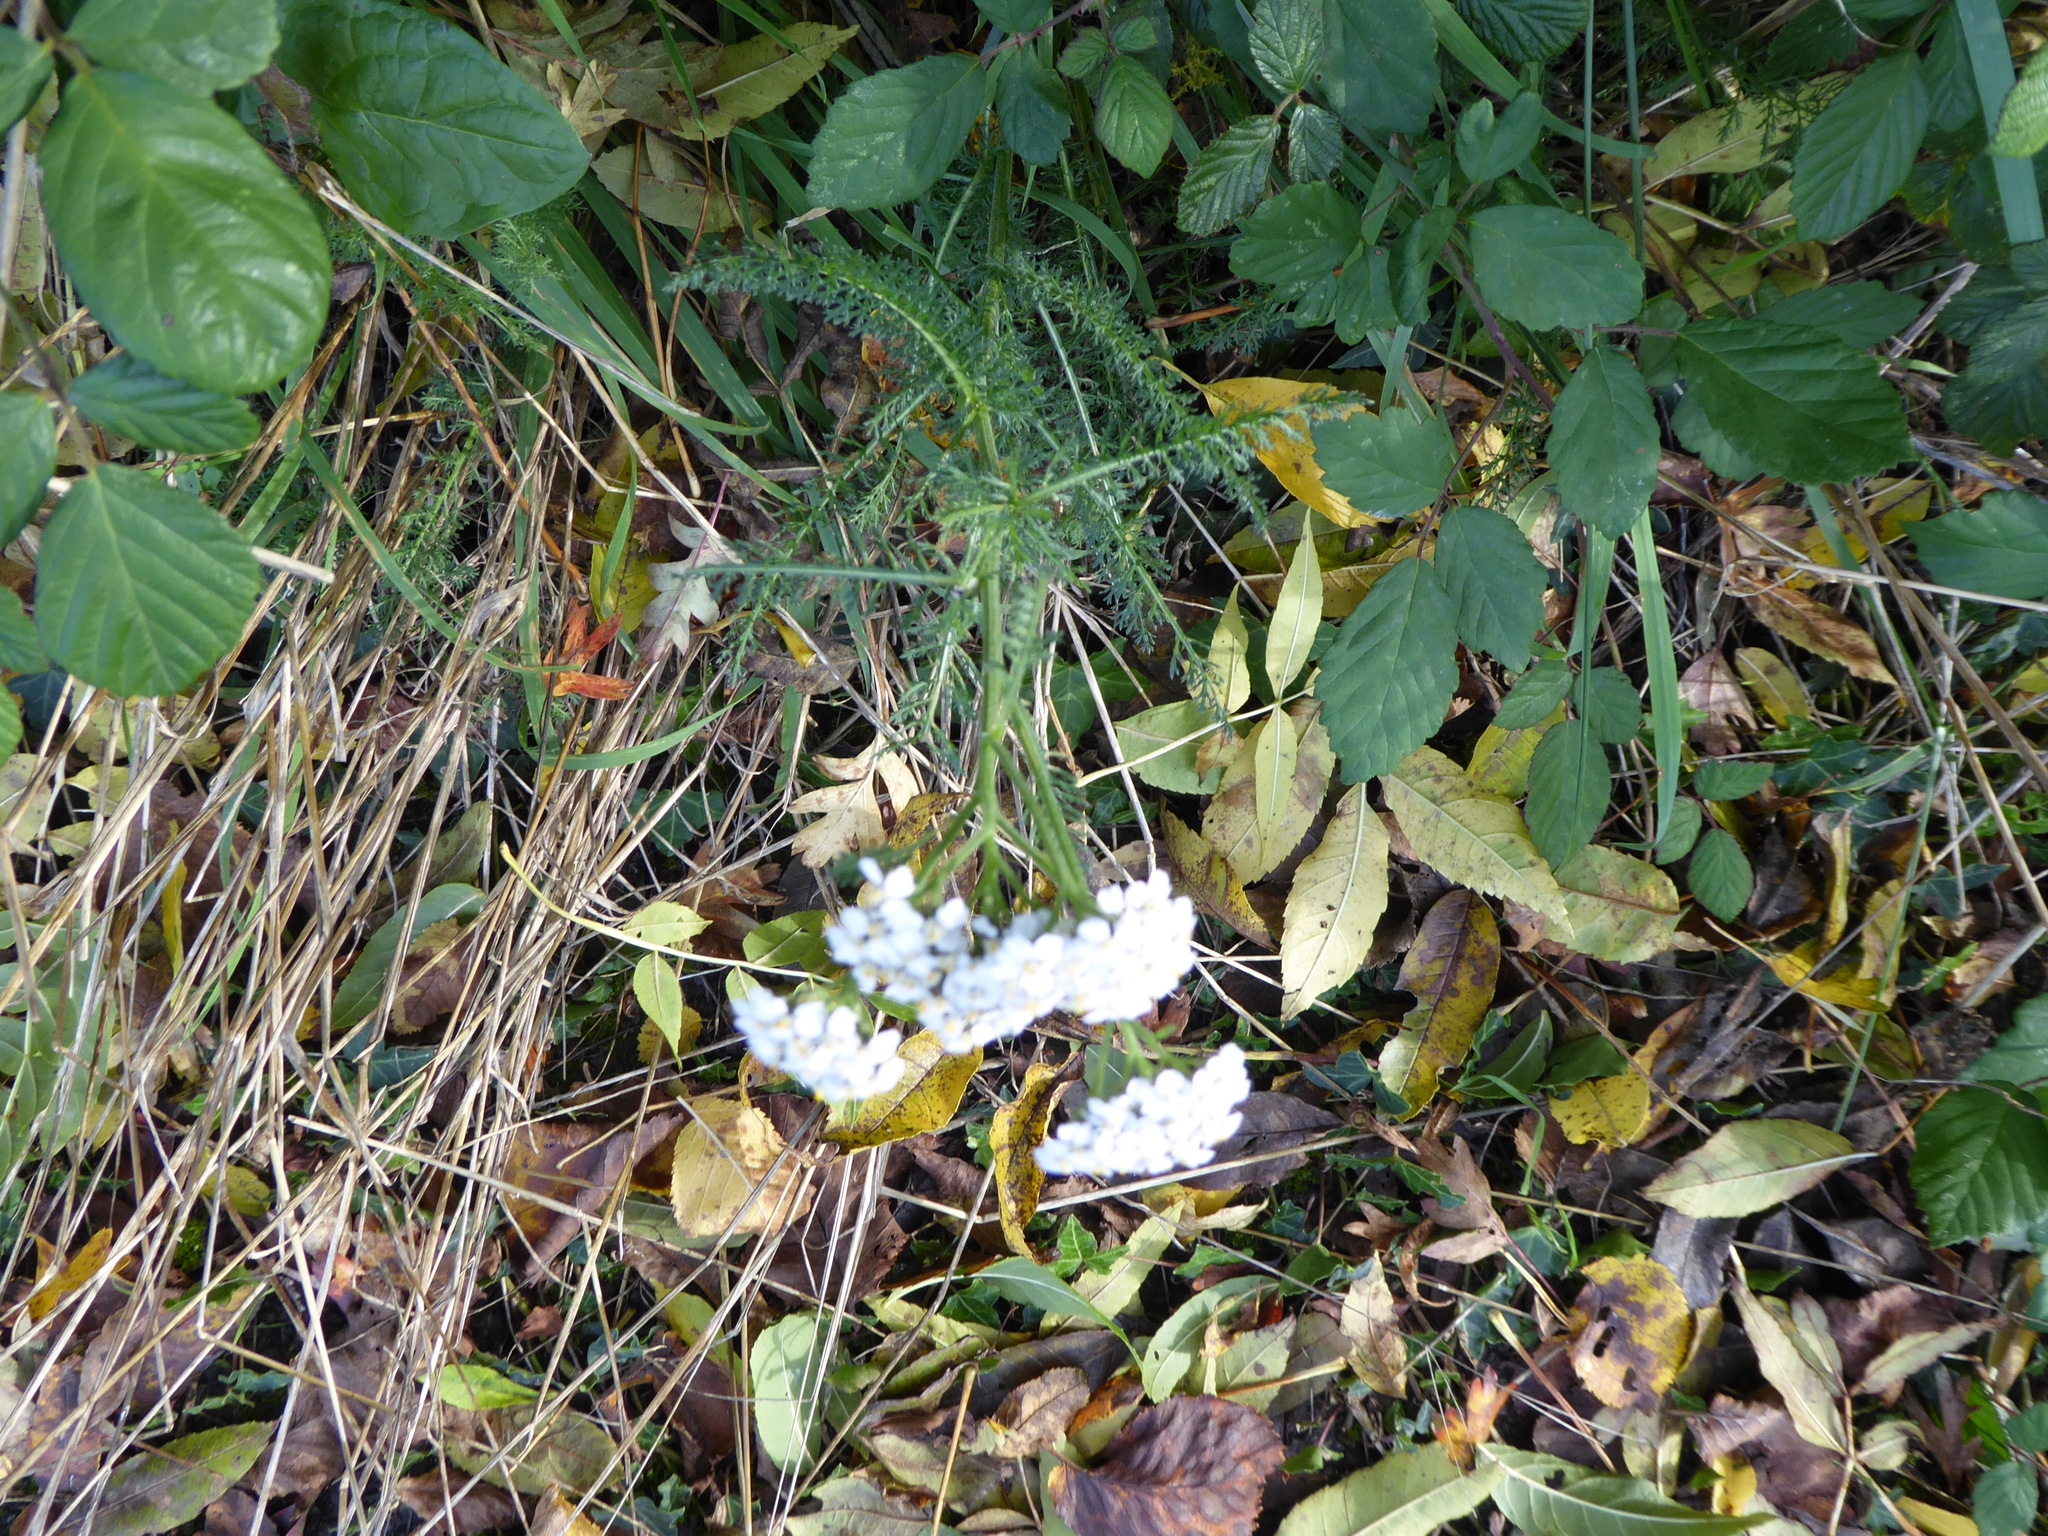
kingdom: Plantae
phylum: Tracheophyta
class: Magnoliopsida
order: Asterales
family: Asteraceae
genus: Achillea
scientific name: Achillea millefolium
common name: Yarrow
